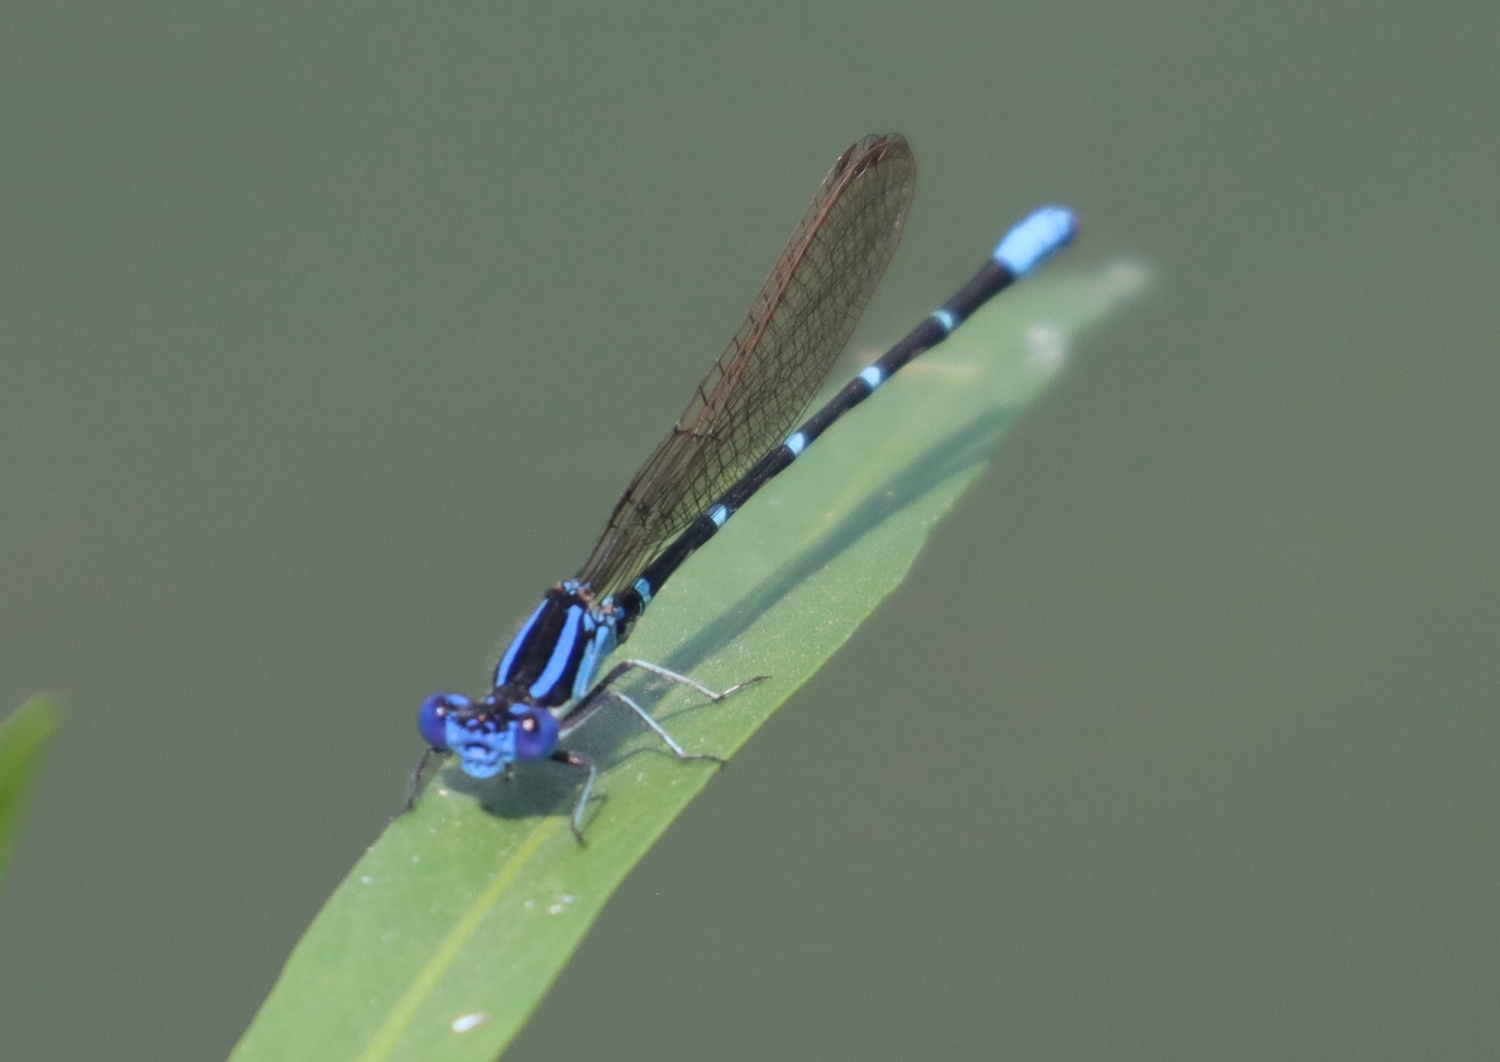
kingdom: Animalia
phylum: Arthropoda
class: Insecta
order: Odonata
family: Coenagrionidae
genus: Argia
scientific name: Argia sedula
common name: Blue-ringed dancer
